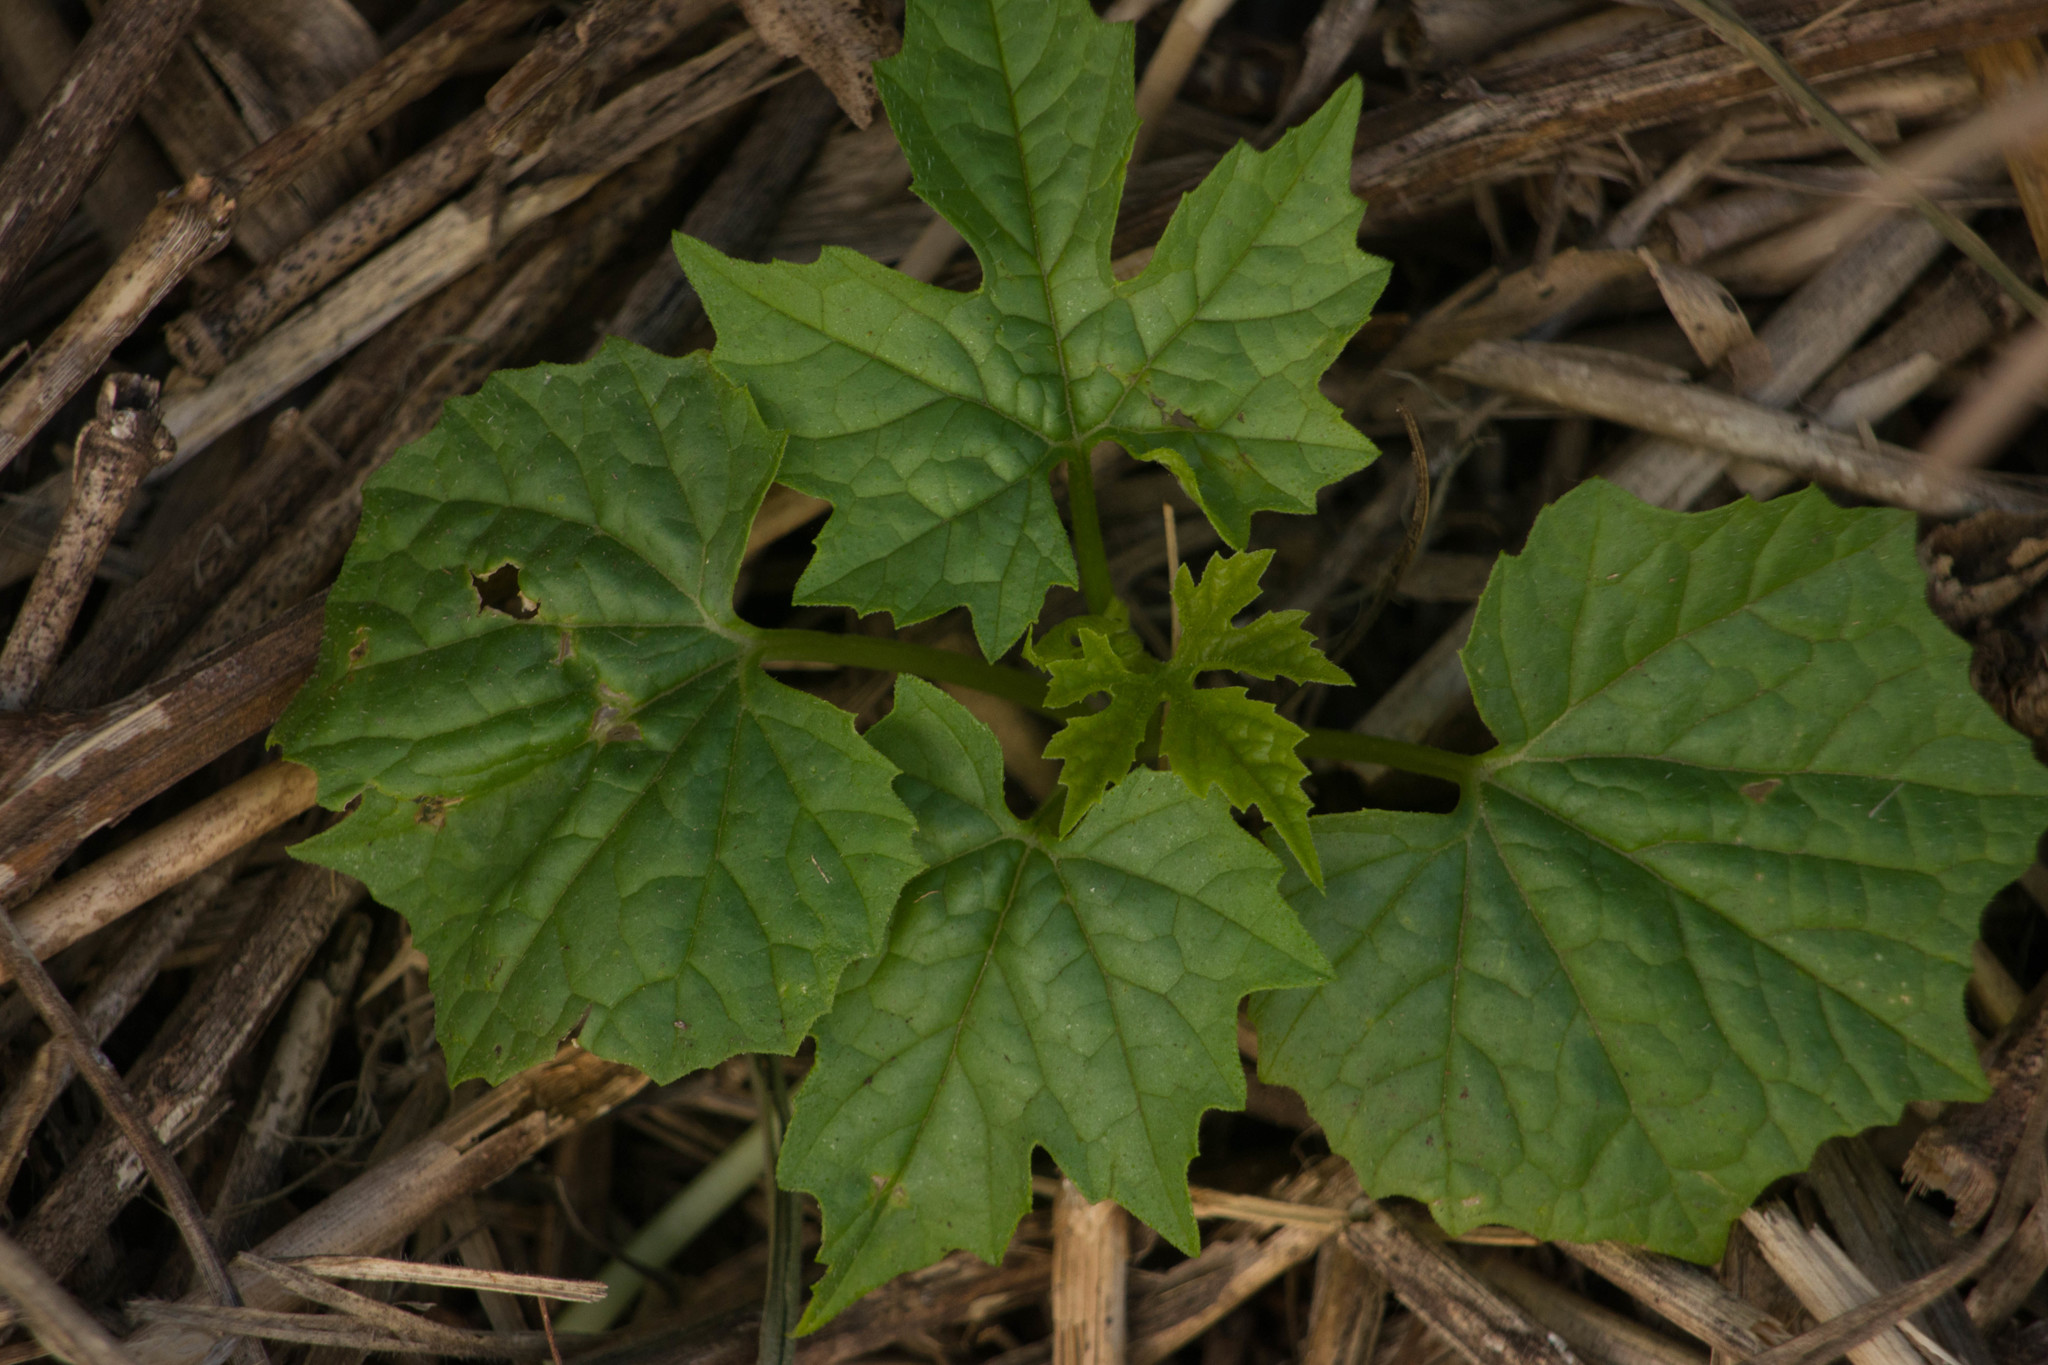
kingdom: Plantae
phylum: Tracheophyta
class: Magnoliopsida
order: Cucurbitales
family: Cucurbitaceae
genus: Momordica
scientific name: Momordica charantia
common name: Balsampear
